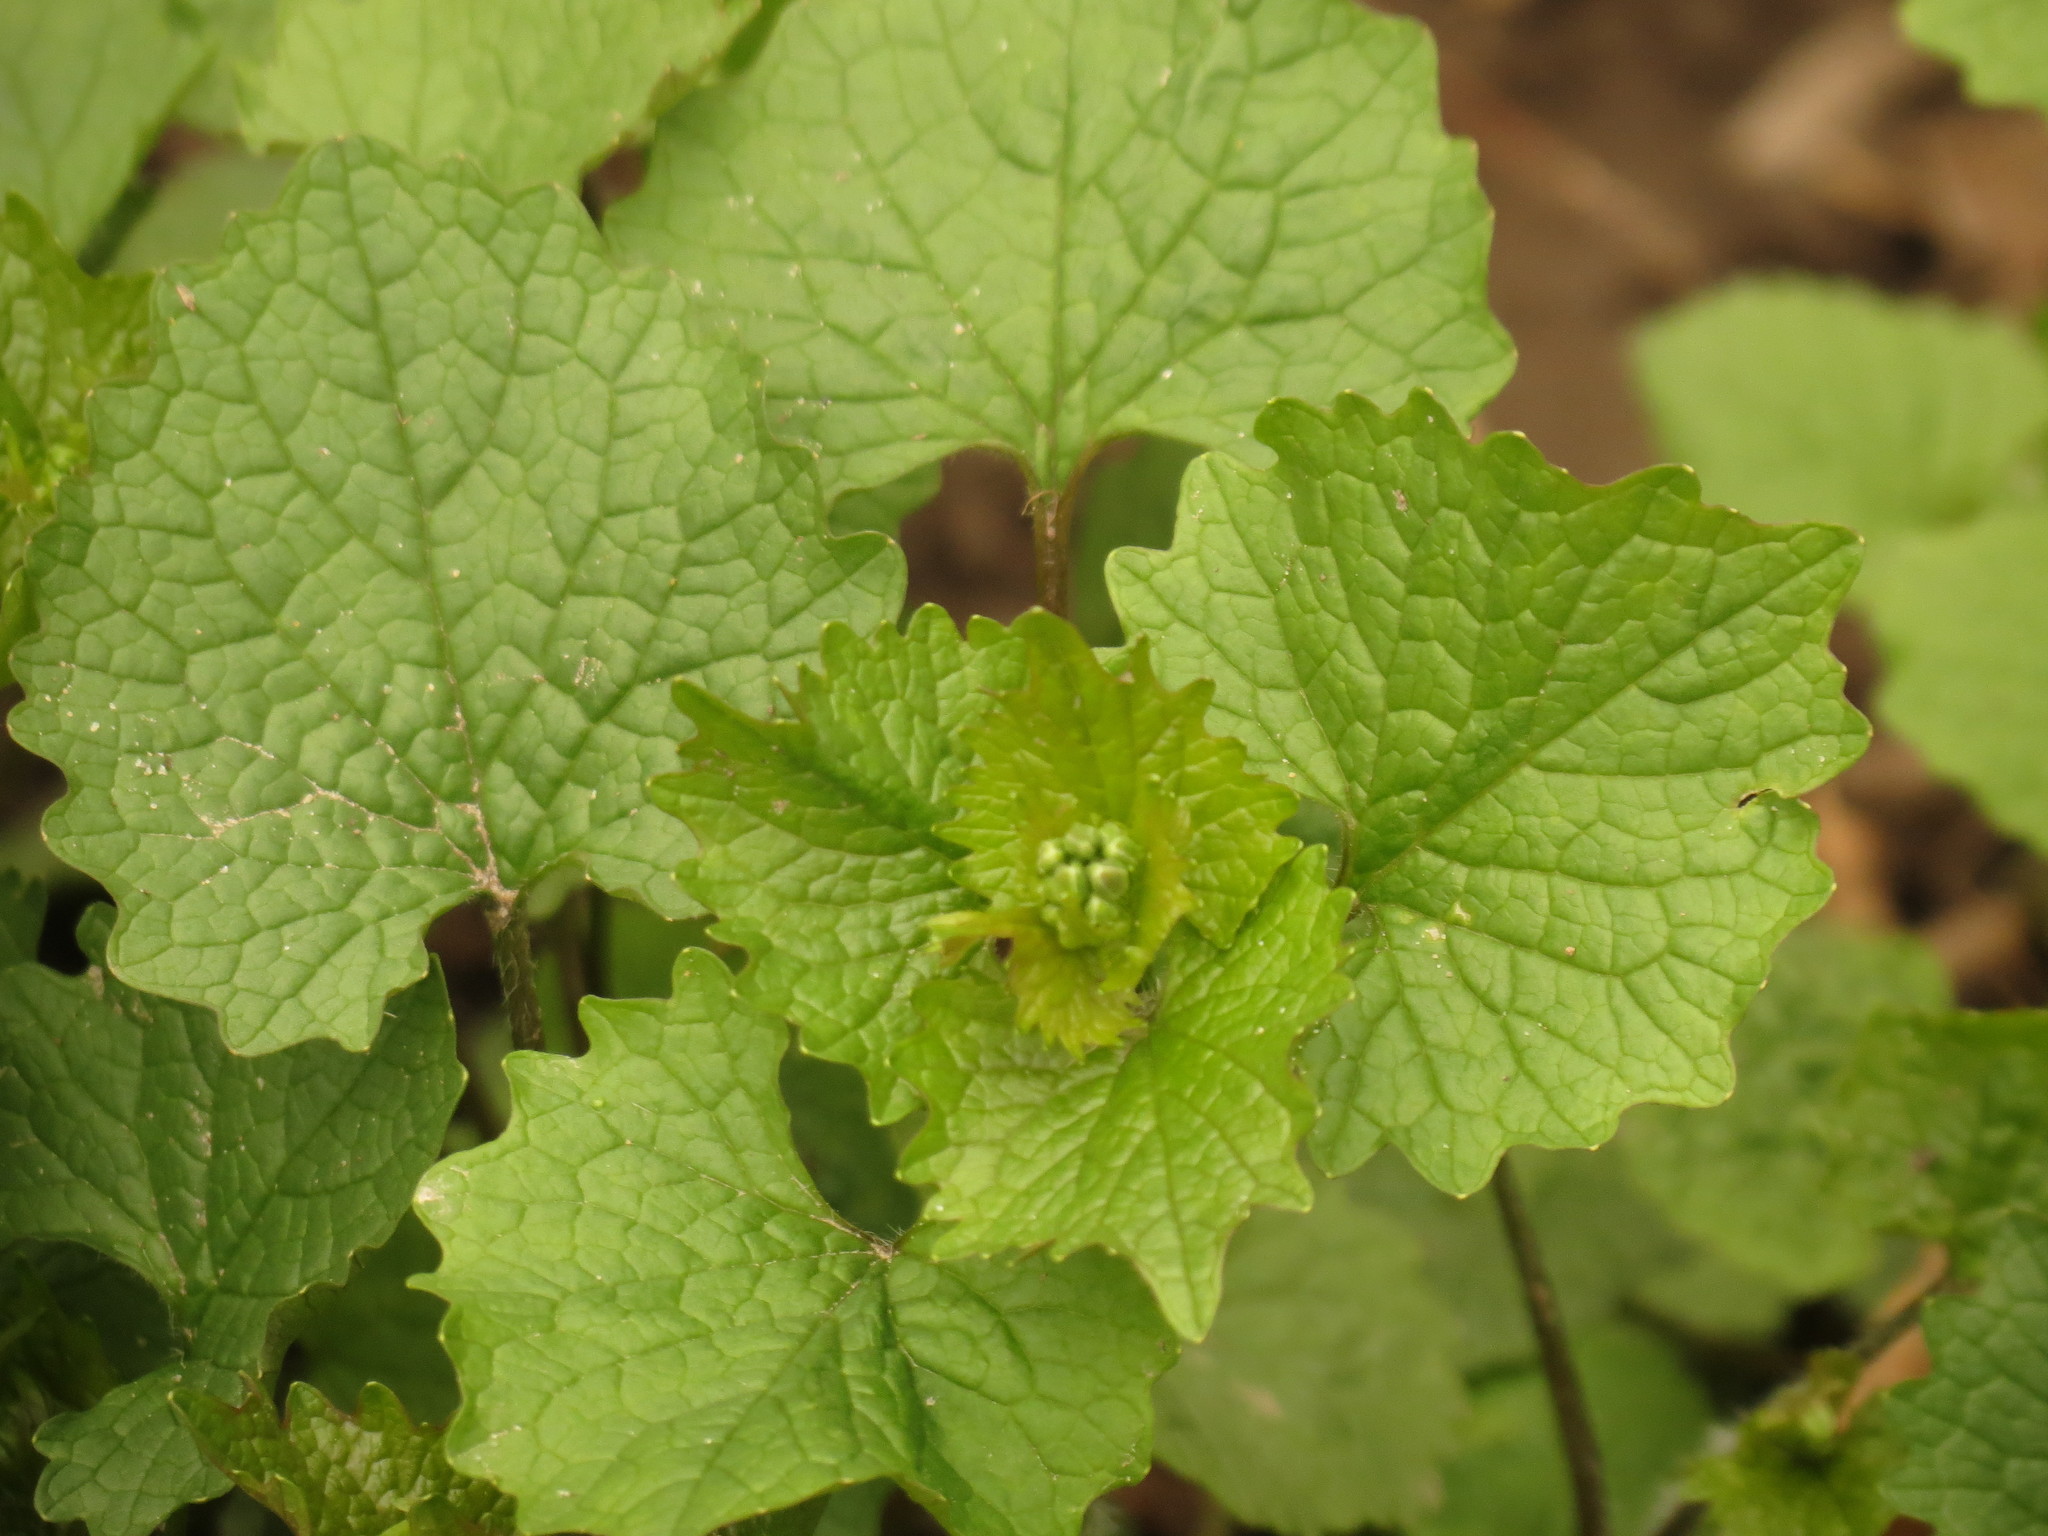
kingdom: Plantae
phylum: Tracheophyta
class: Magnoliopsida
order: Brassicales
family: Brassicaceae
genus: Alliaria
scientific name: Alliaria petiolata
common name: Garlic mustard
